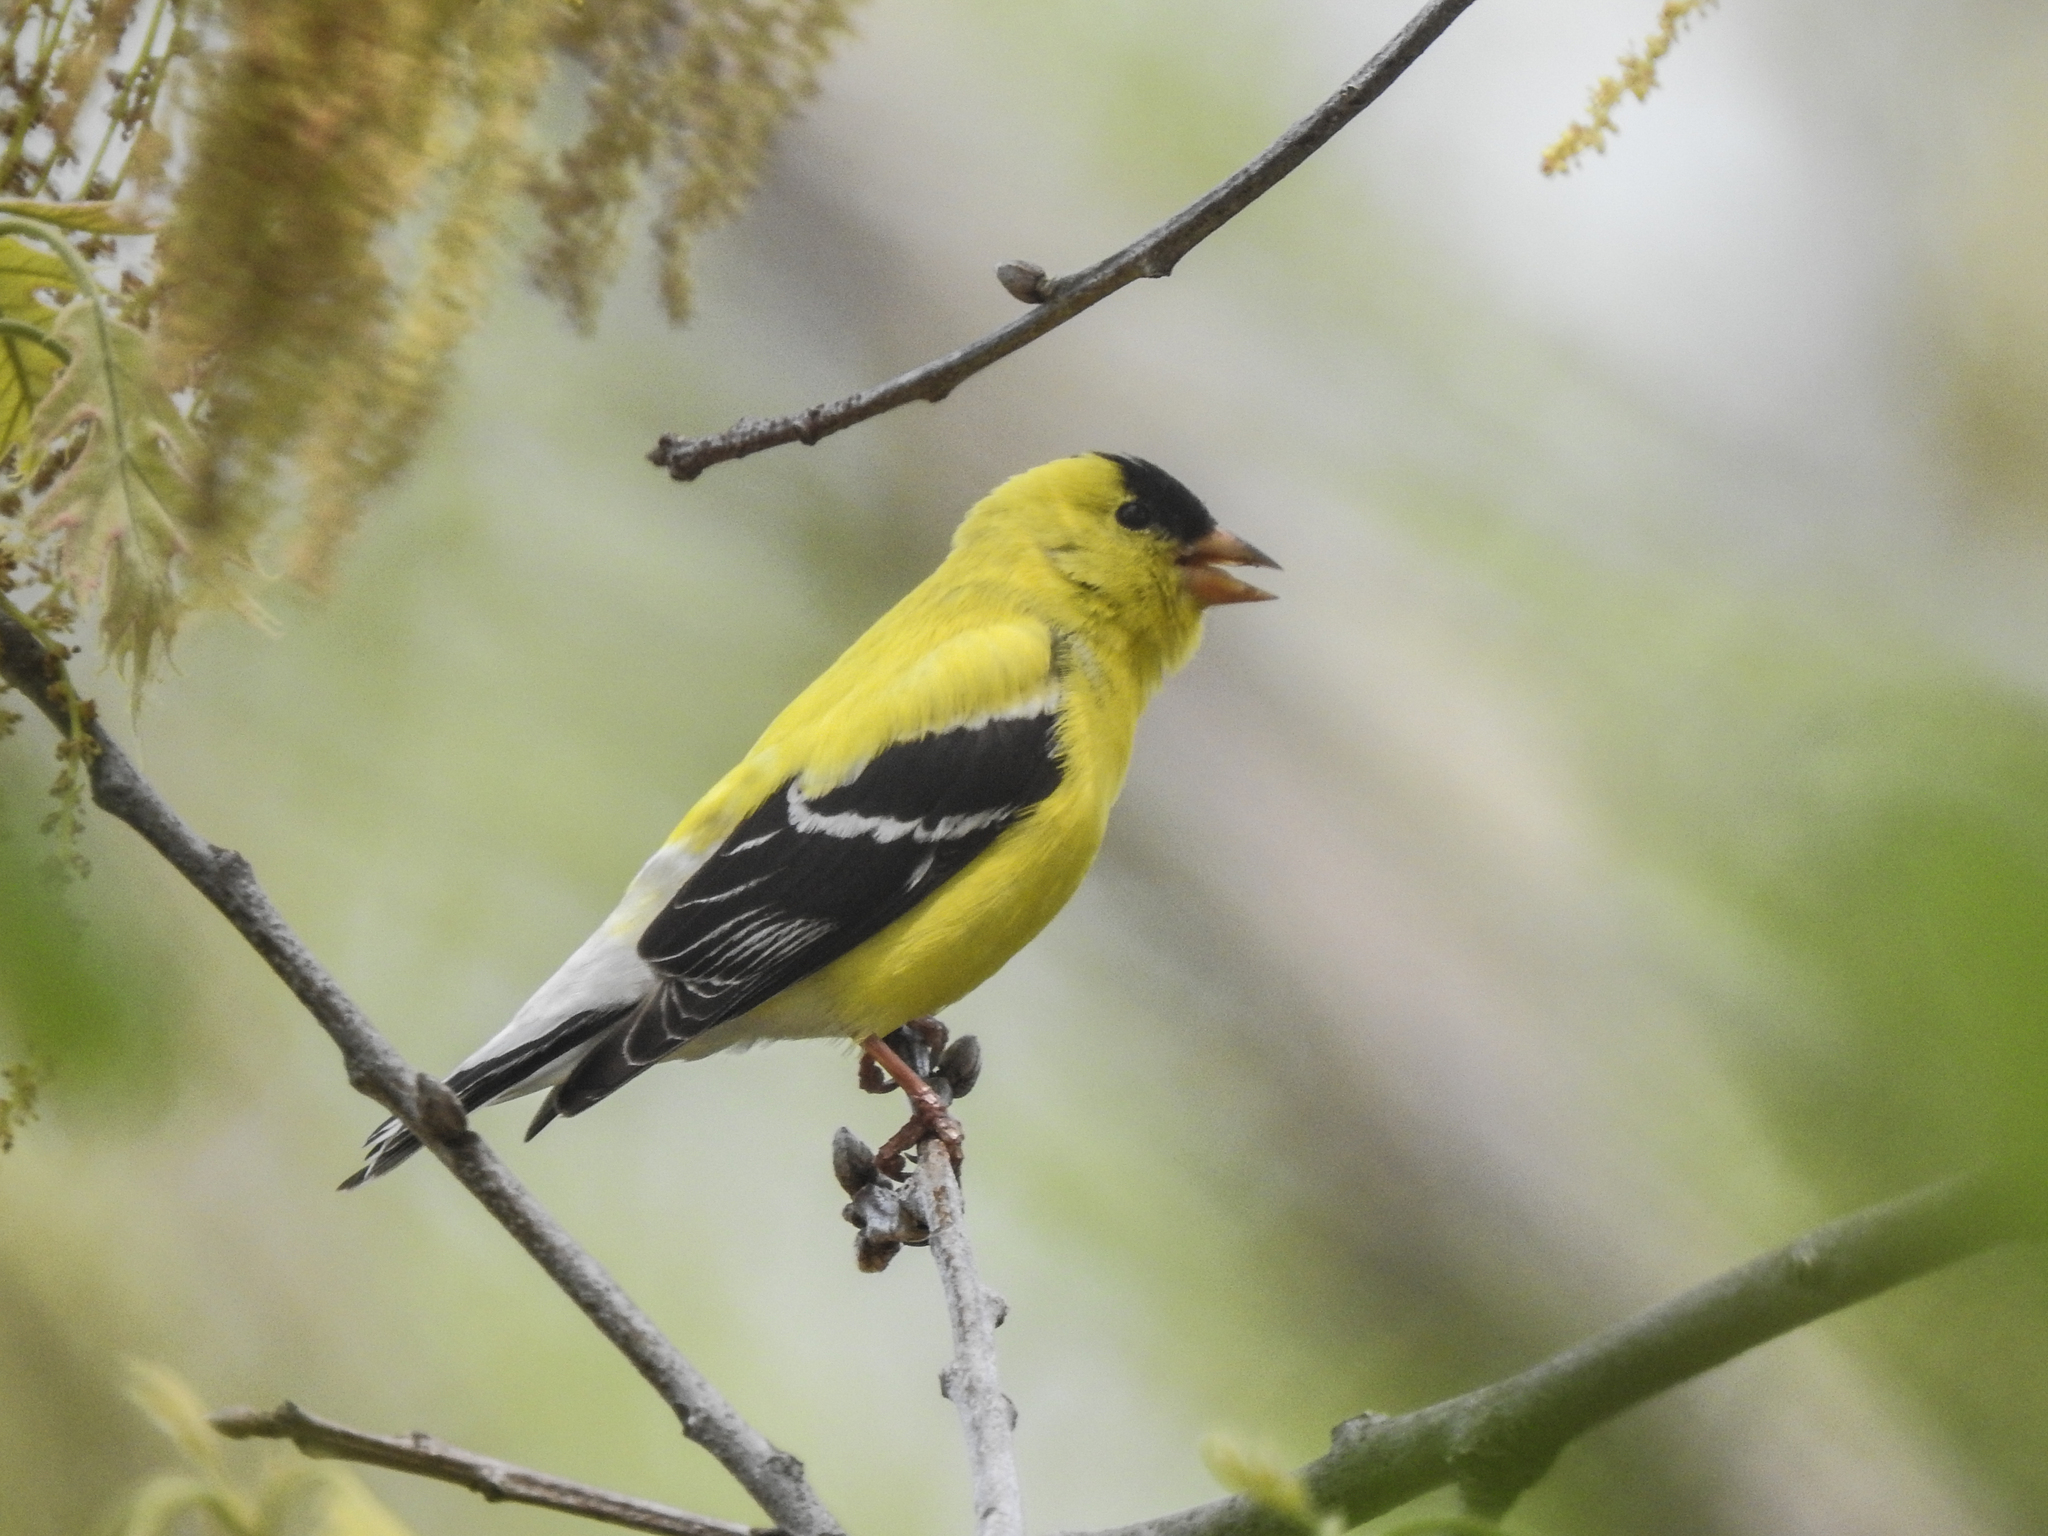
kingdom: Animalia
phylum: Chordata
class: Aves
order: Passeriformes
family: Fringillidae
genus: Spinus
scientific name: Spinus tristis
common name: American goldfinch
